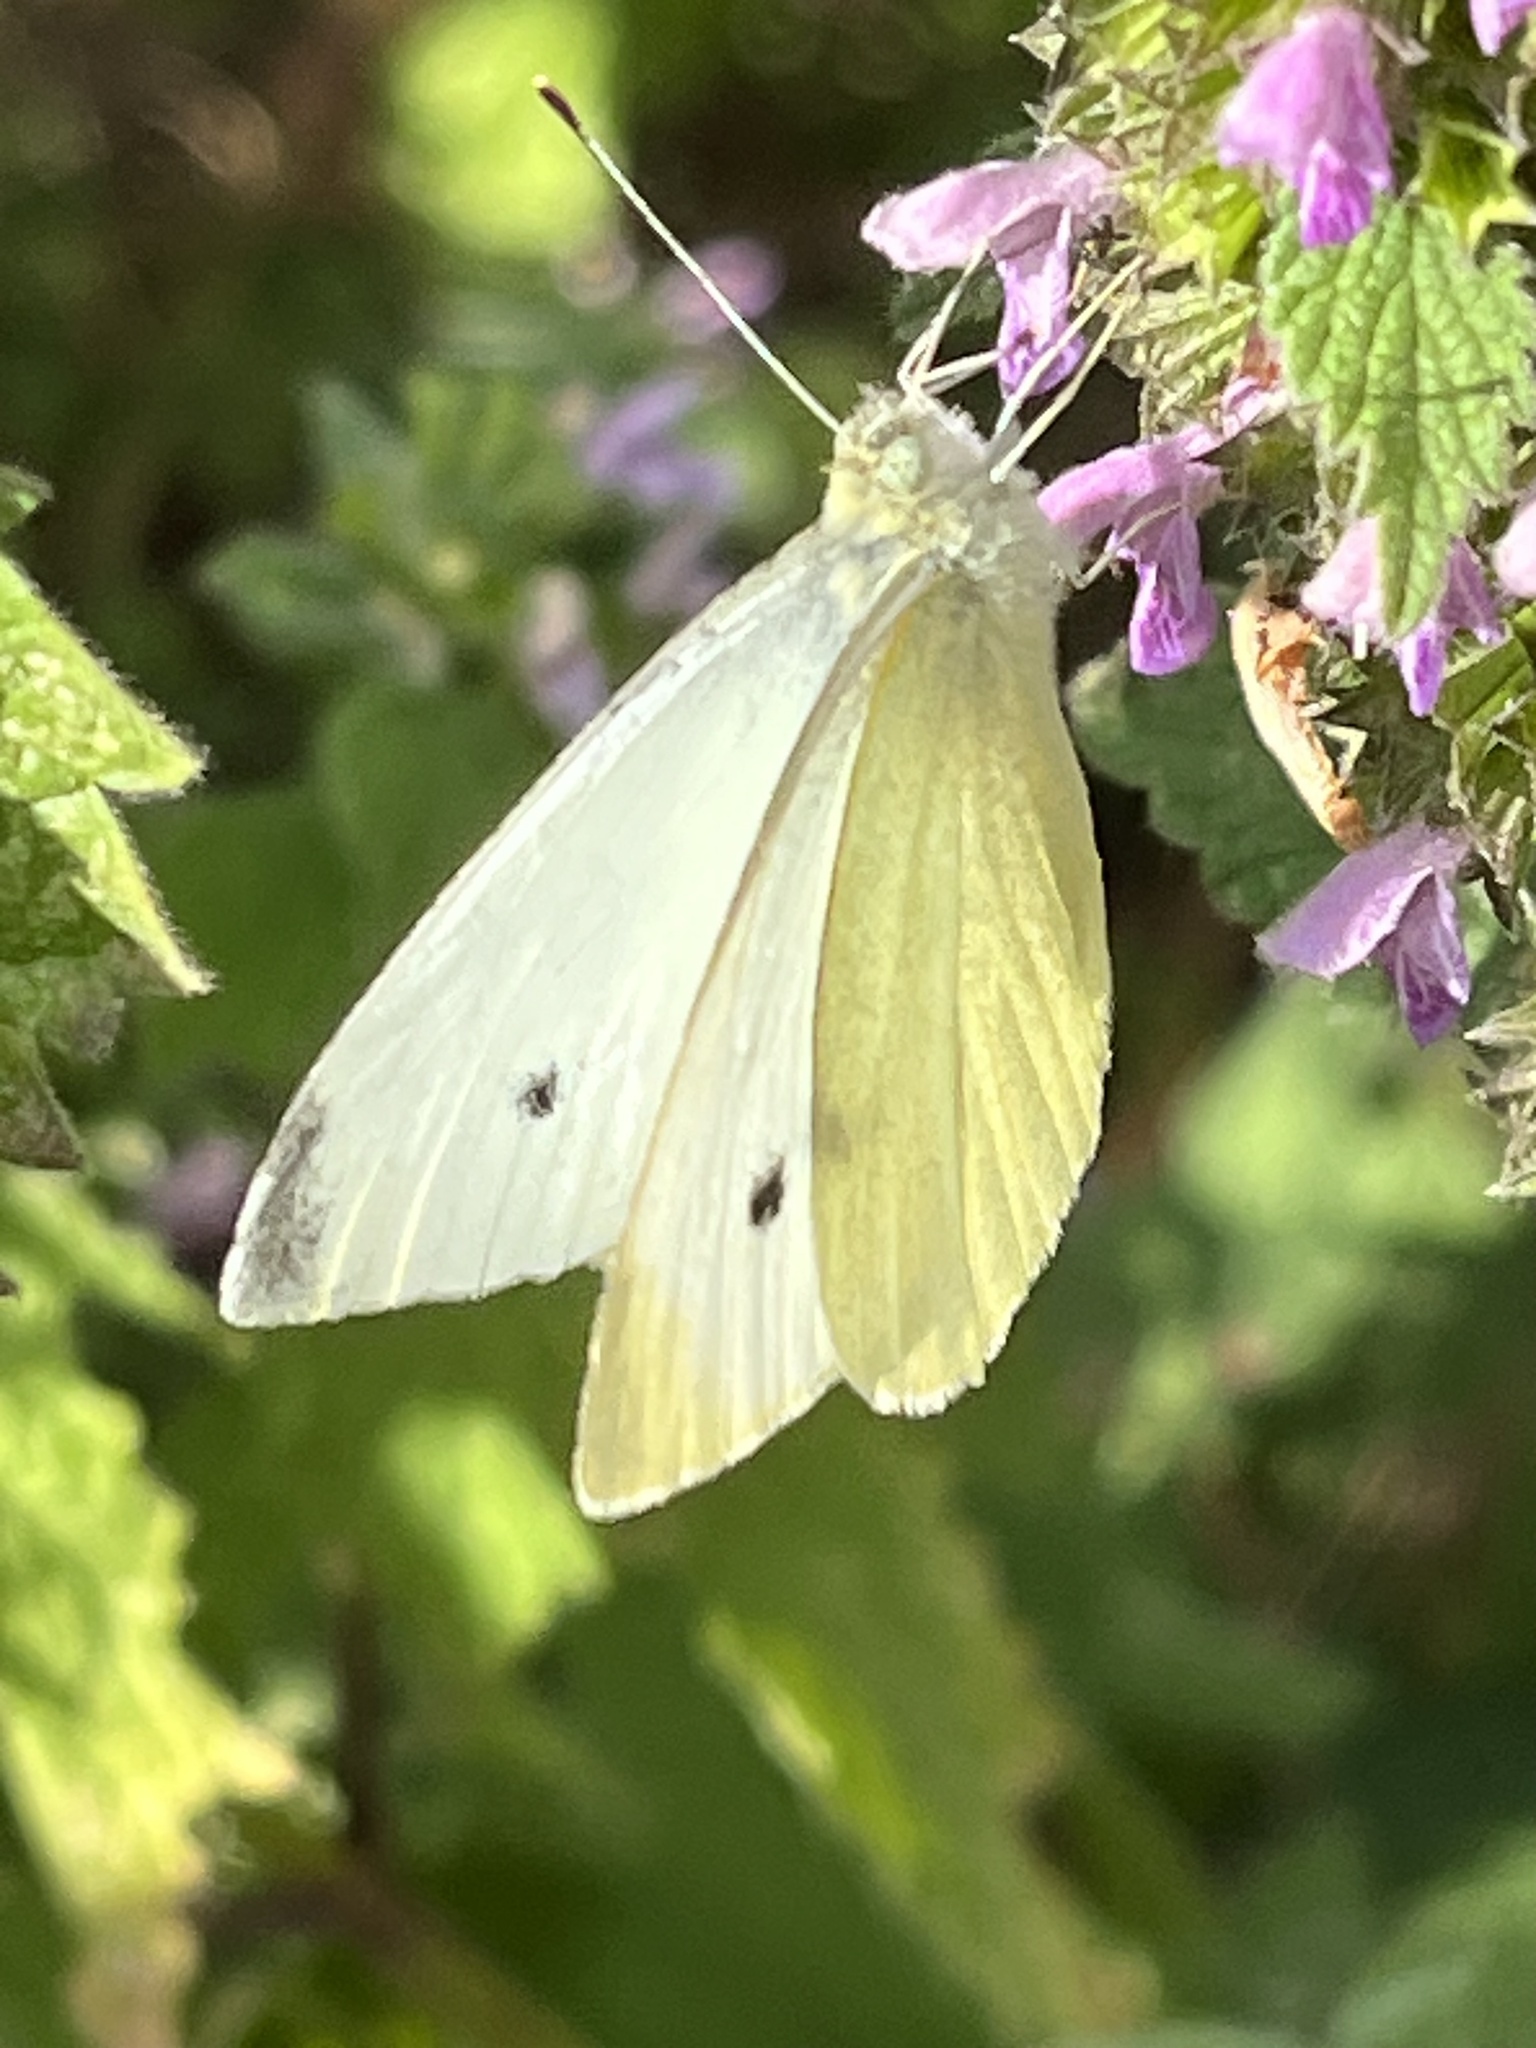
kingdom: Animalia
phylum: Arthropoda
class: Insecta
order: Lepidoptera
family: Pieridae
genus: Pieris
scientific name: Pieris rapae
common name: Small white
